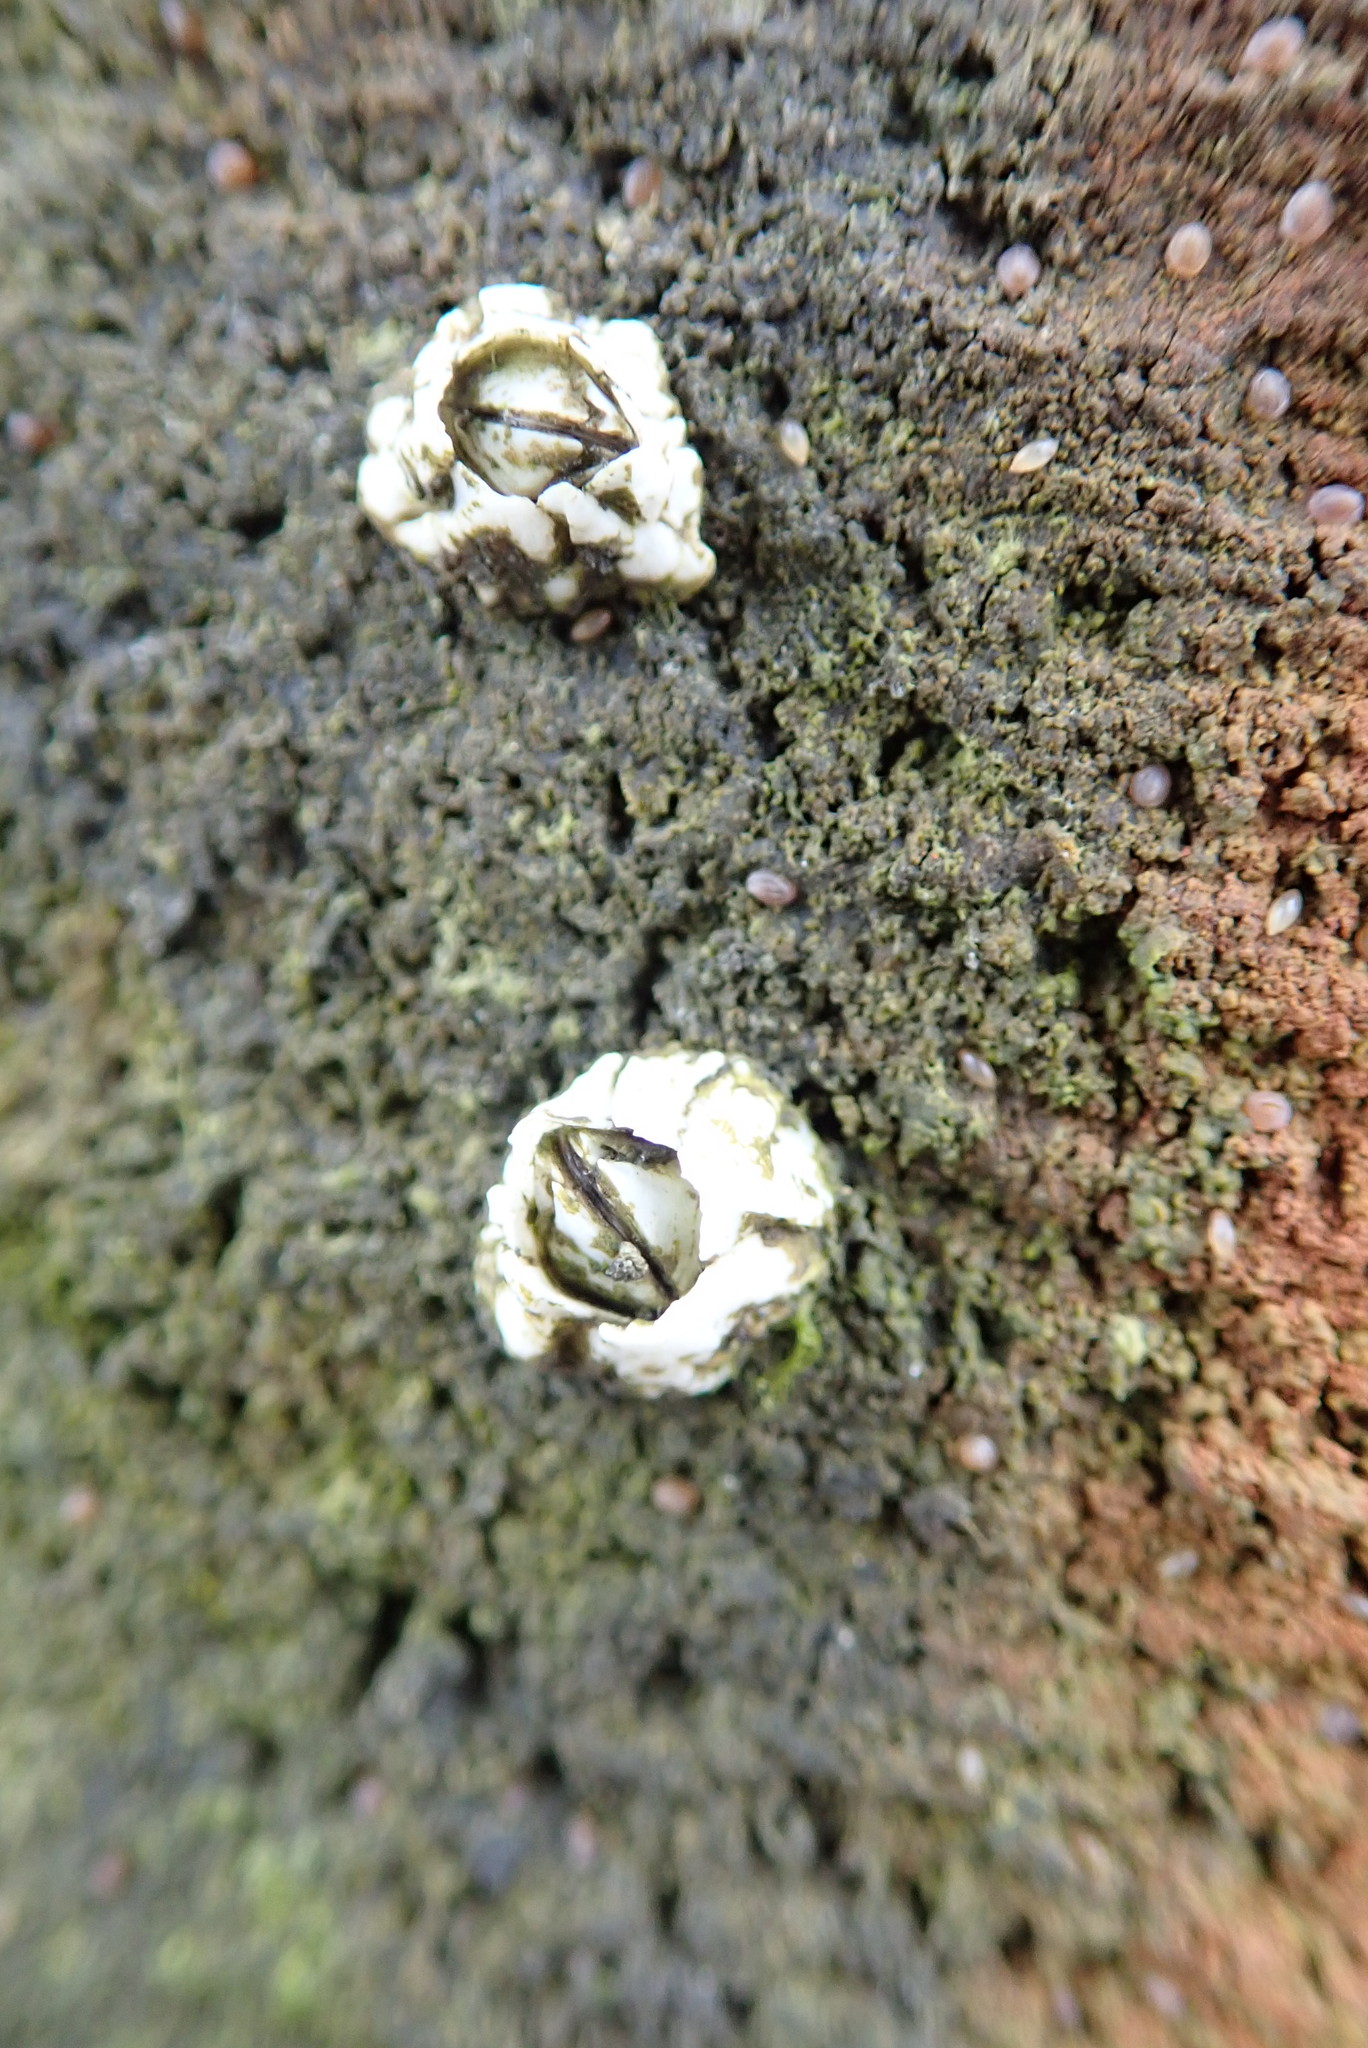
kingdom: Animalia
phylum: Arthropoda
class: Maxillopoda
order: Sessilia
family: Archaeobalanidae
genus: Semibalanus
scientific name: Semibalanus balanoides
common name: Acorn barnacle
